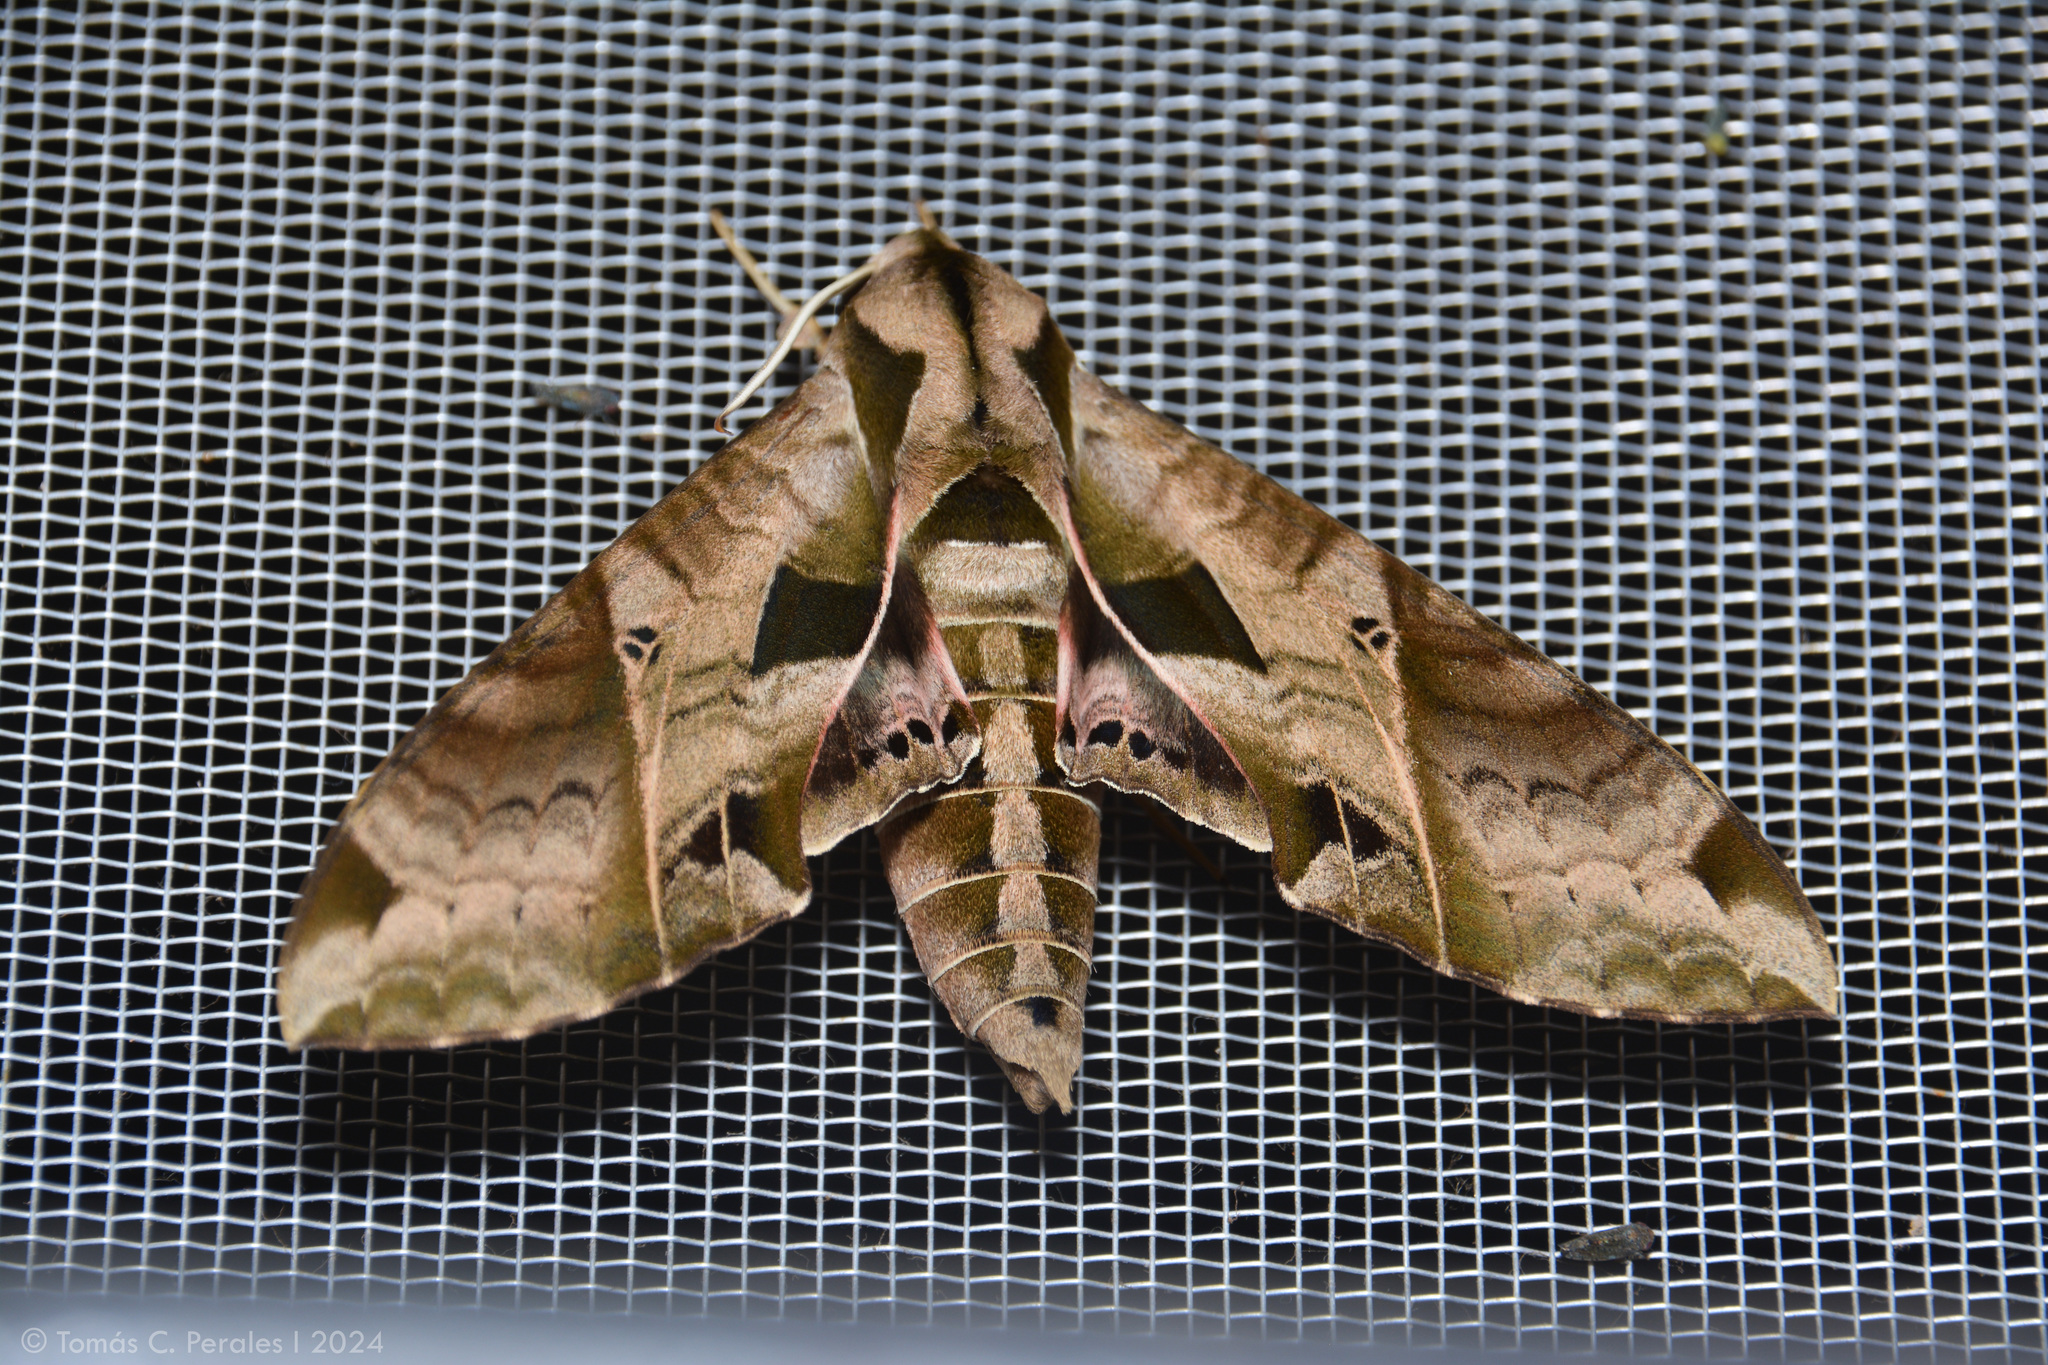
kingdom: Animalia
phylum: Arthropoda
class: Insecta
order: Lepidoptera
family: Sphingidae
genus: Eumorpha
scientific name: Eumorpha analis
